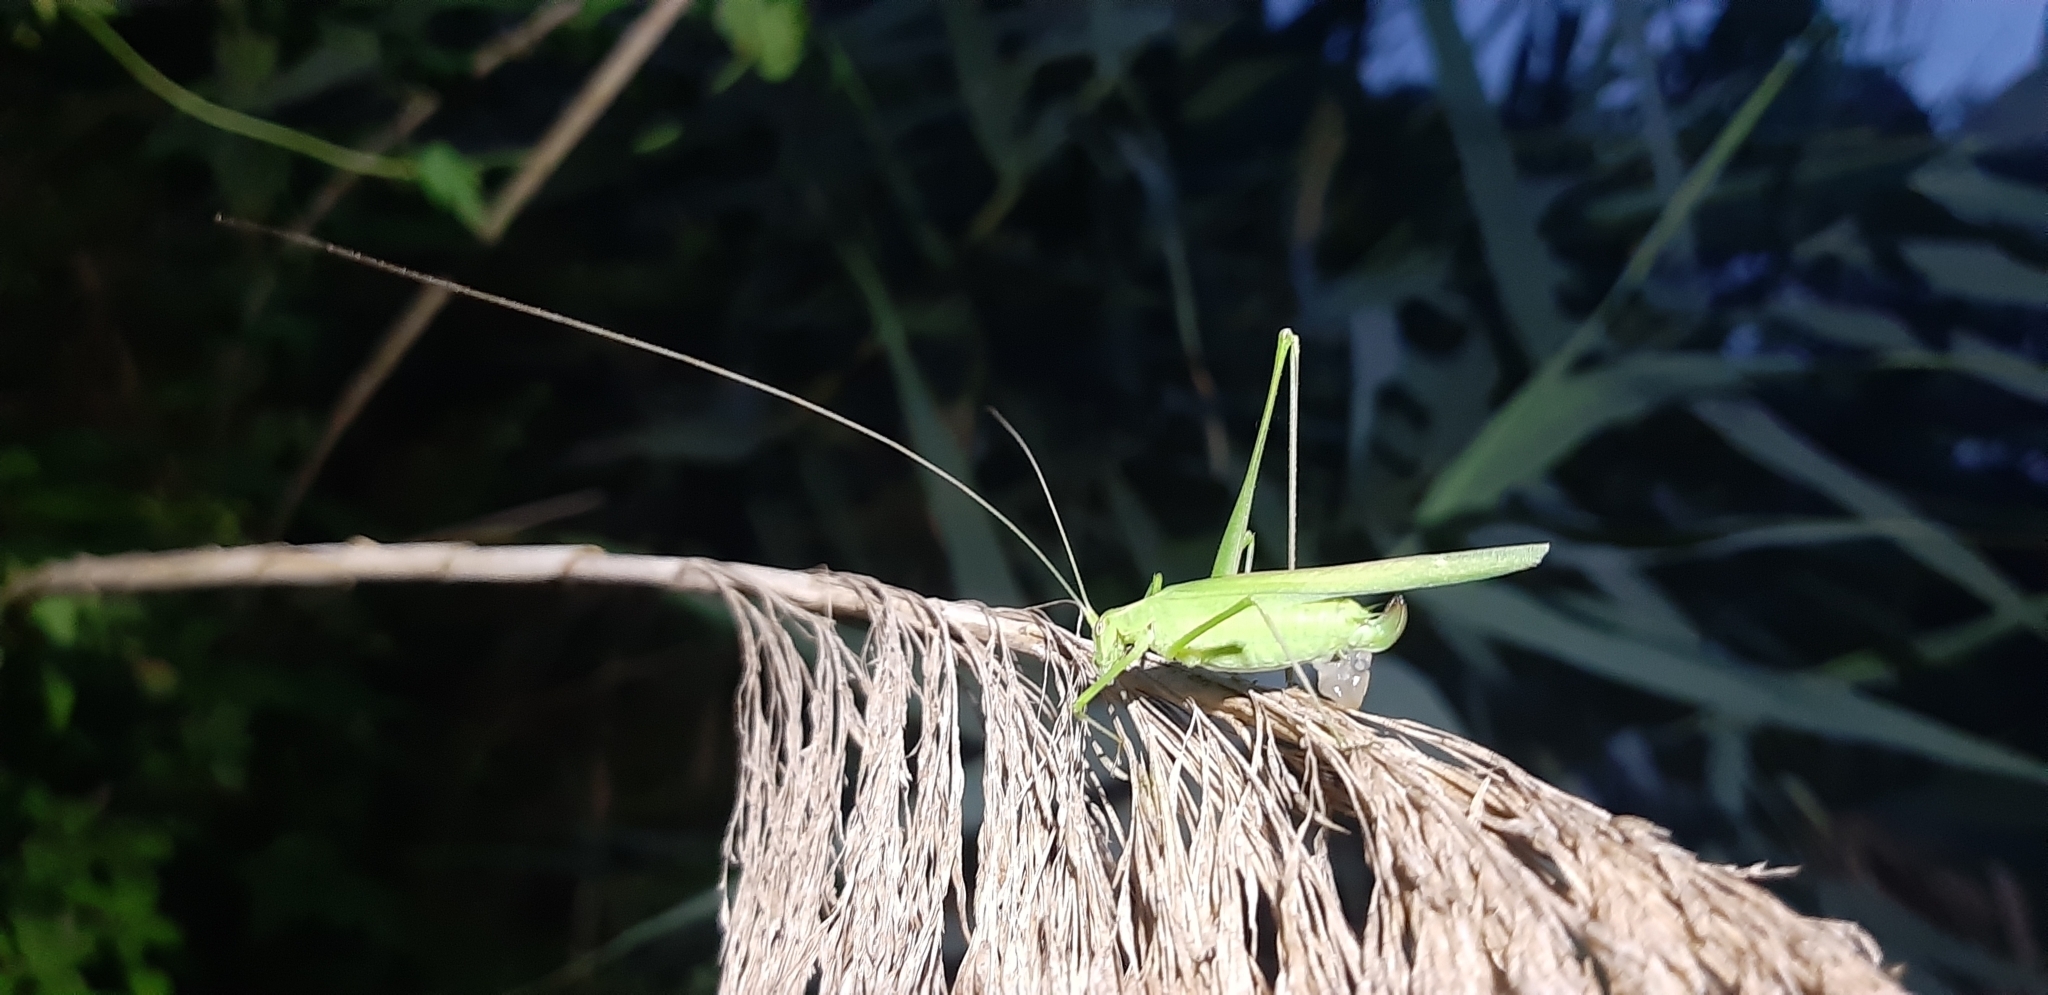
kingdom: Animalia
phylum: Arthropoda
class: Insecta
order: Orthoptera
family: Tettigoniidae
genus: Tylopsis
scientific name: Tylopsis lilifolia
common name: Lily bush-cricket
